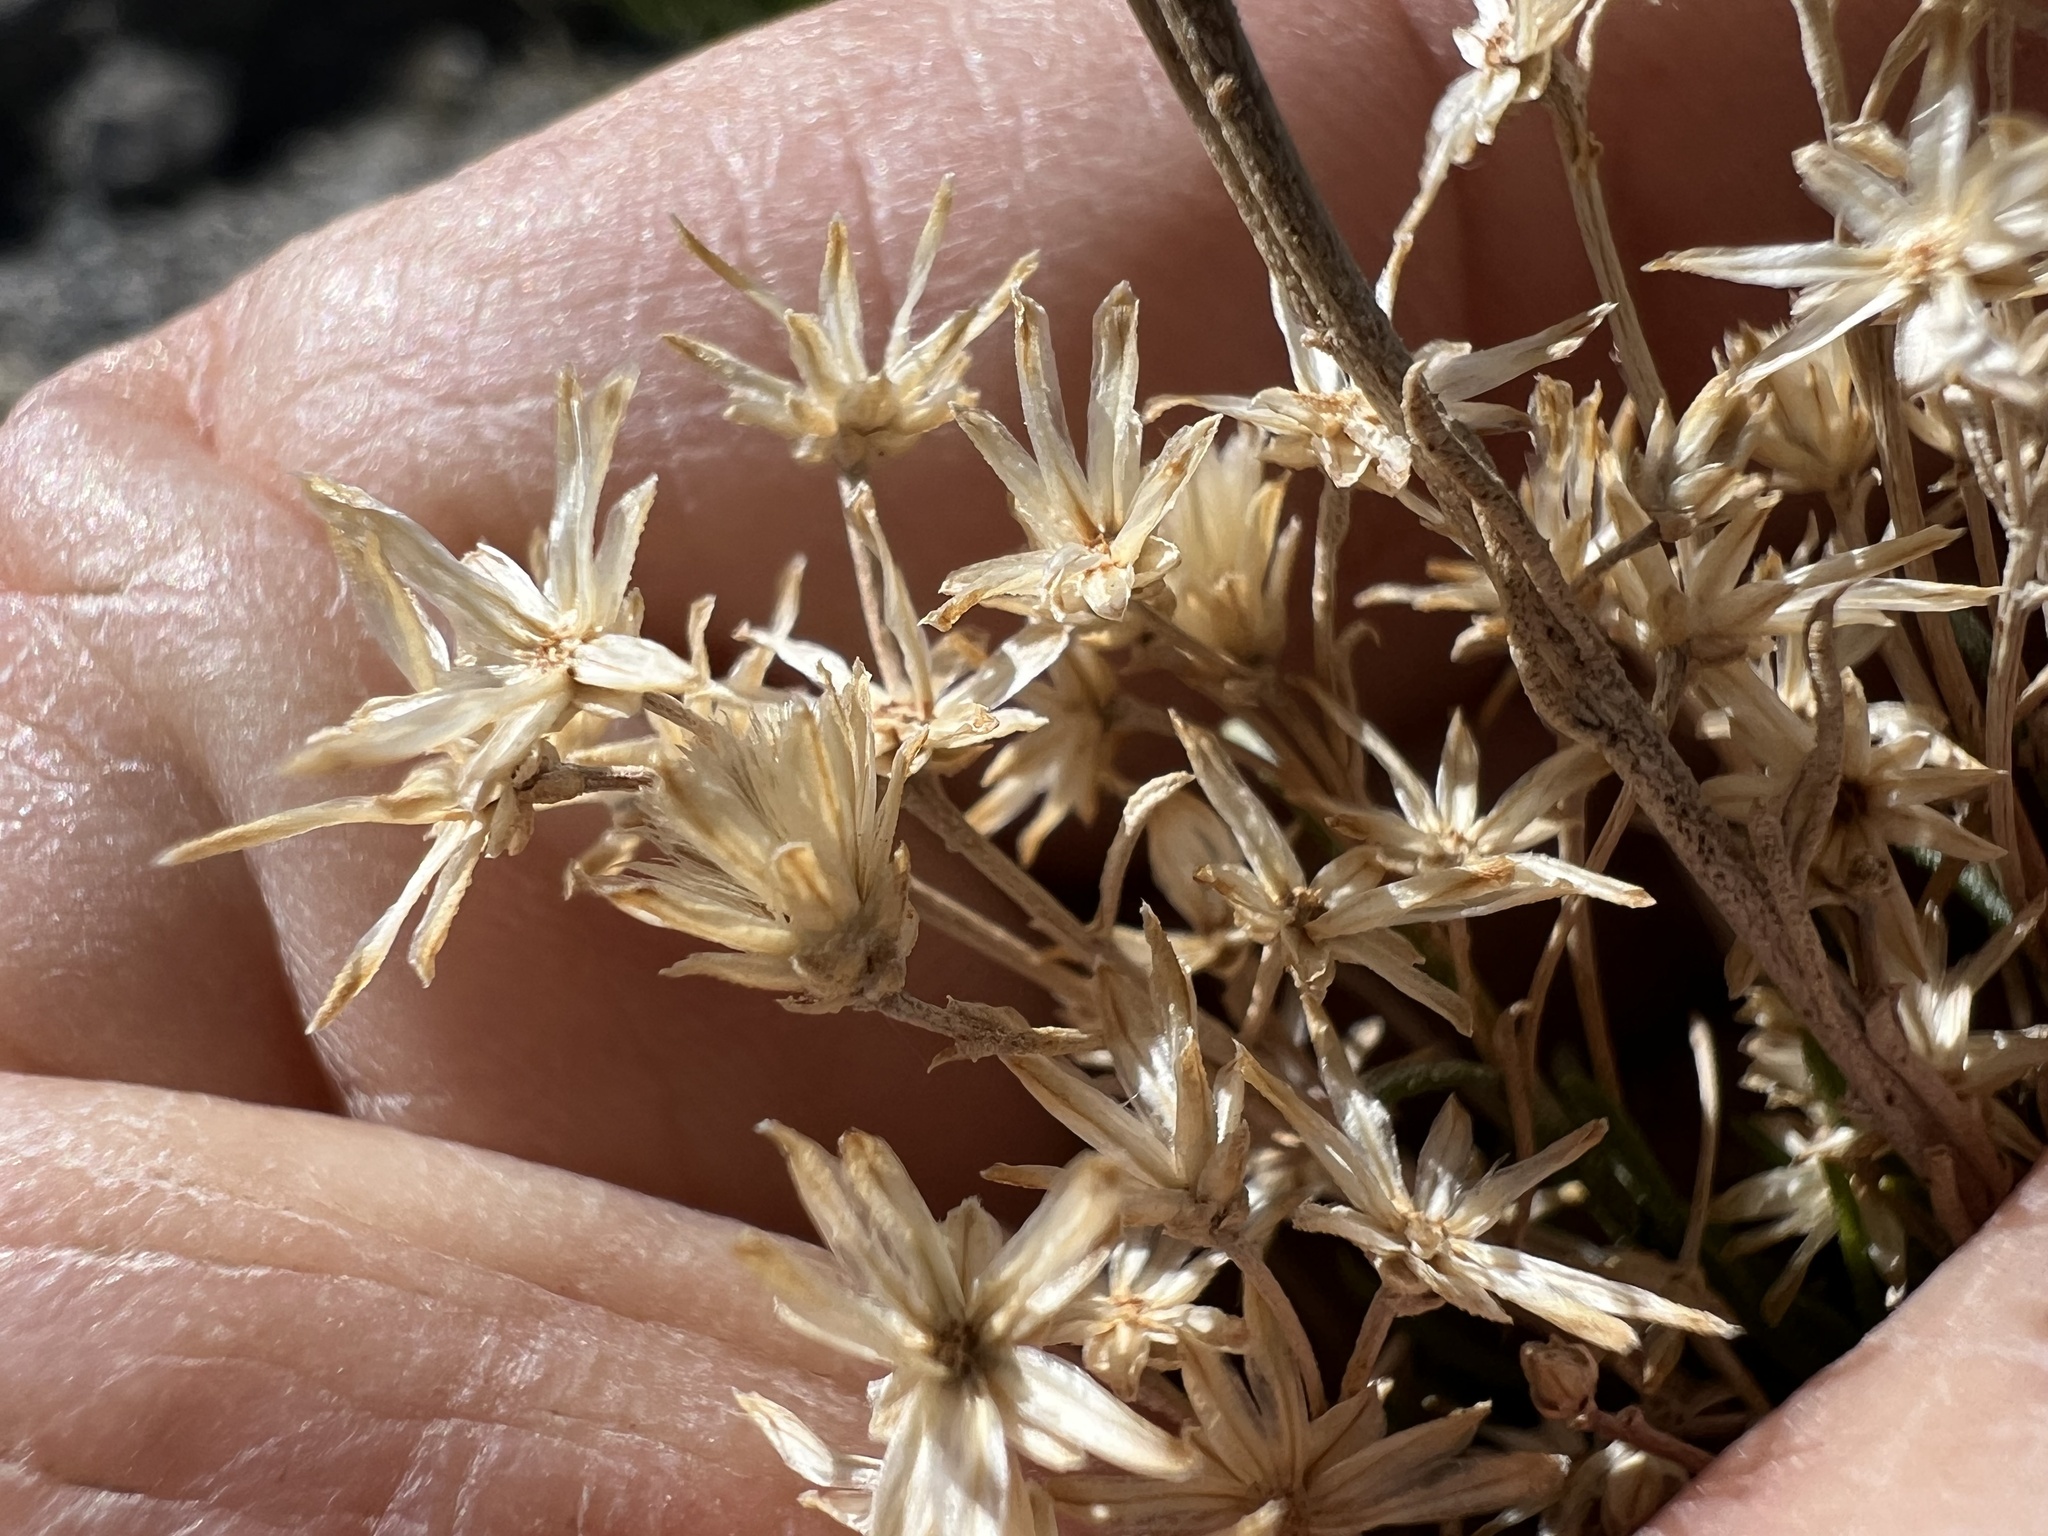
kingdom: Plantae
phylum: Tracheophyta
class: Magnoliopsida
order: Asterales
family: Asteraceae
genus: Ericameria
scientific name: Ericameria paniculata
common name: Punctate rabbitbrush
